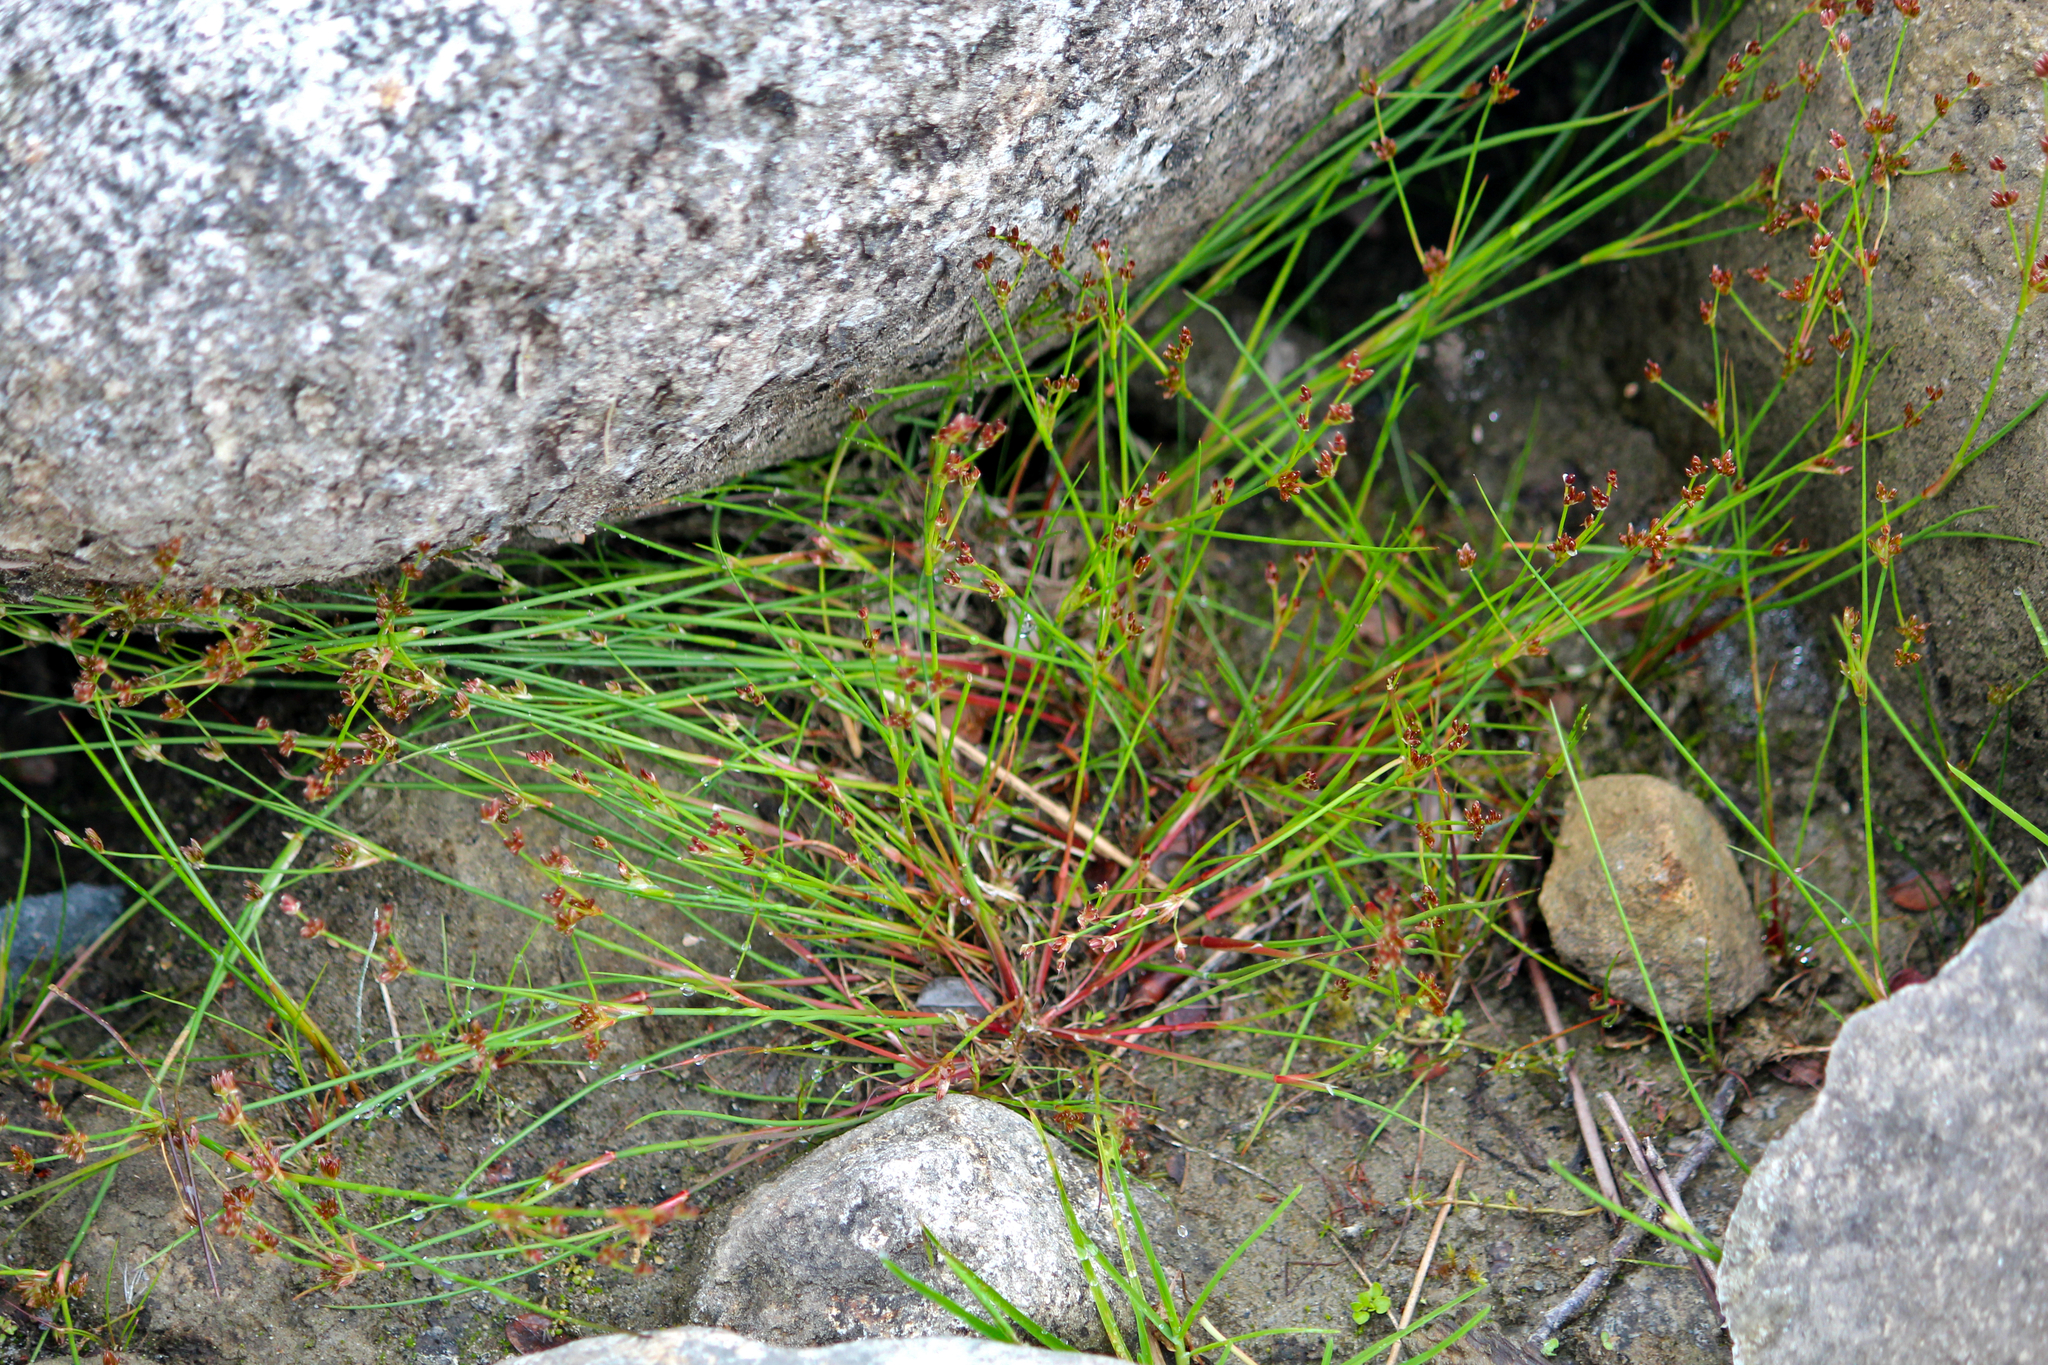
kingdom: Plantae
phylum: Tracheophyta
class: Liliopsida
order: Poales
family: Juncaceae
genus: Juncus
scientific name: Juncus articulatus
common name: Jointed rush
